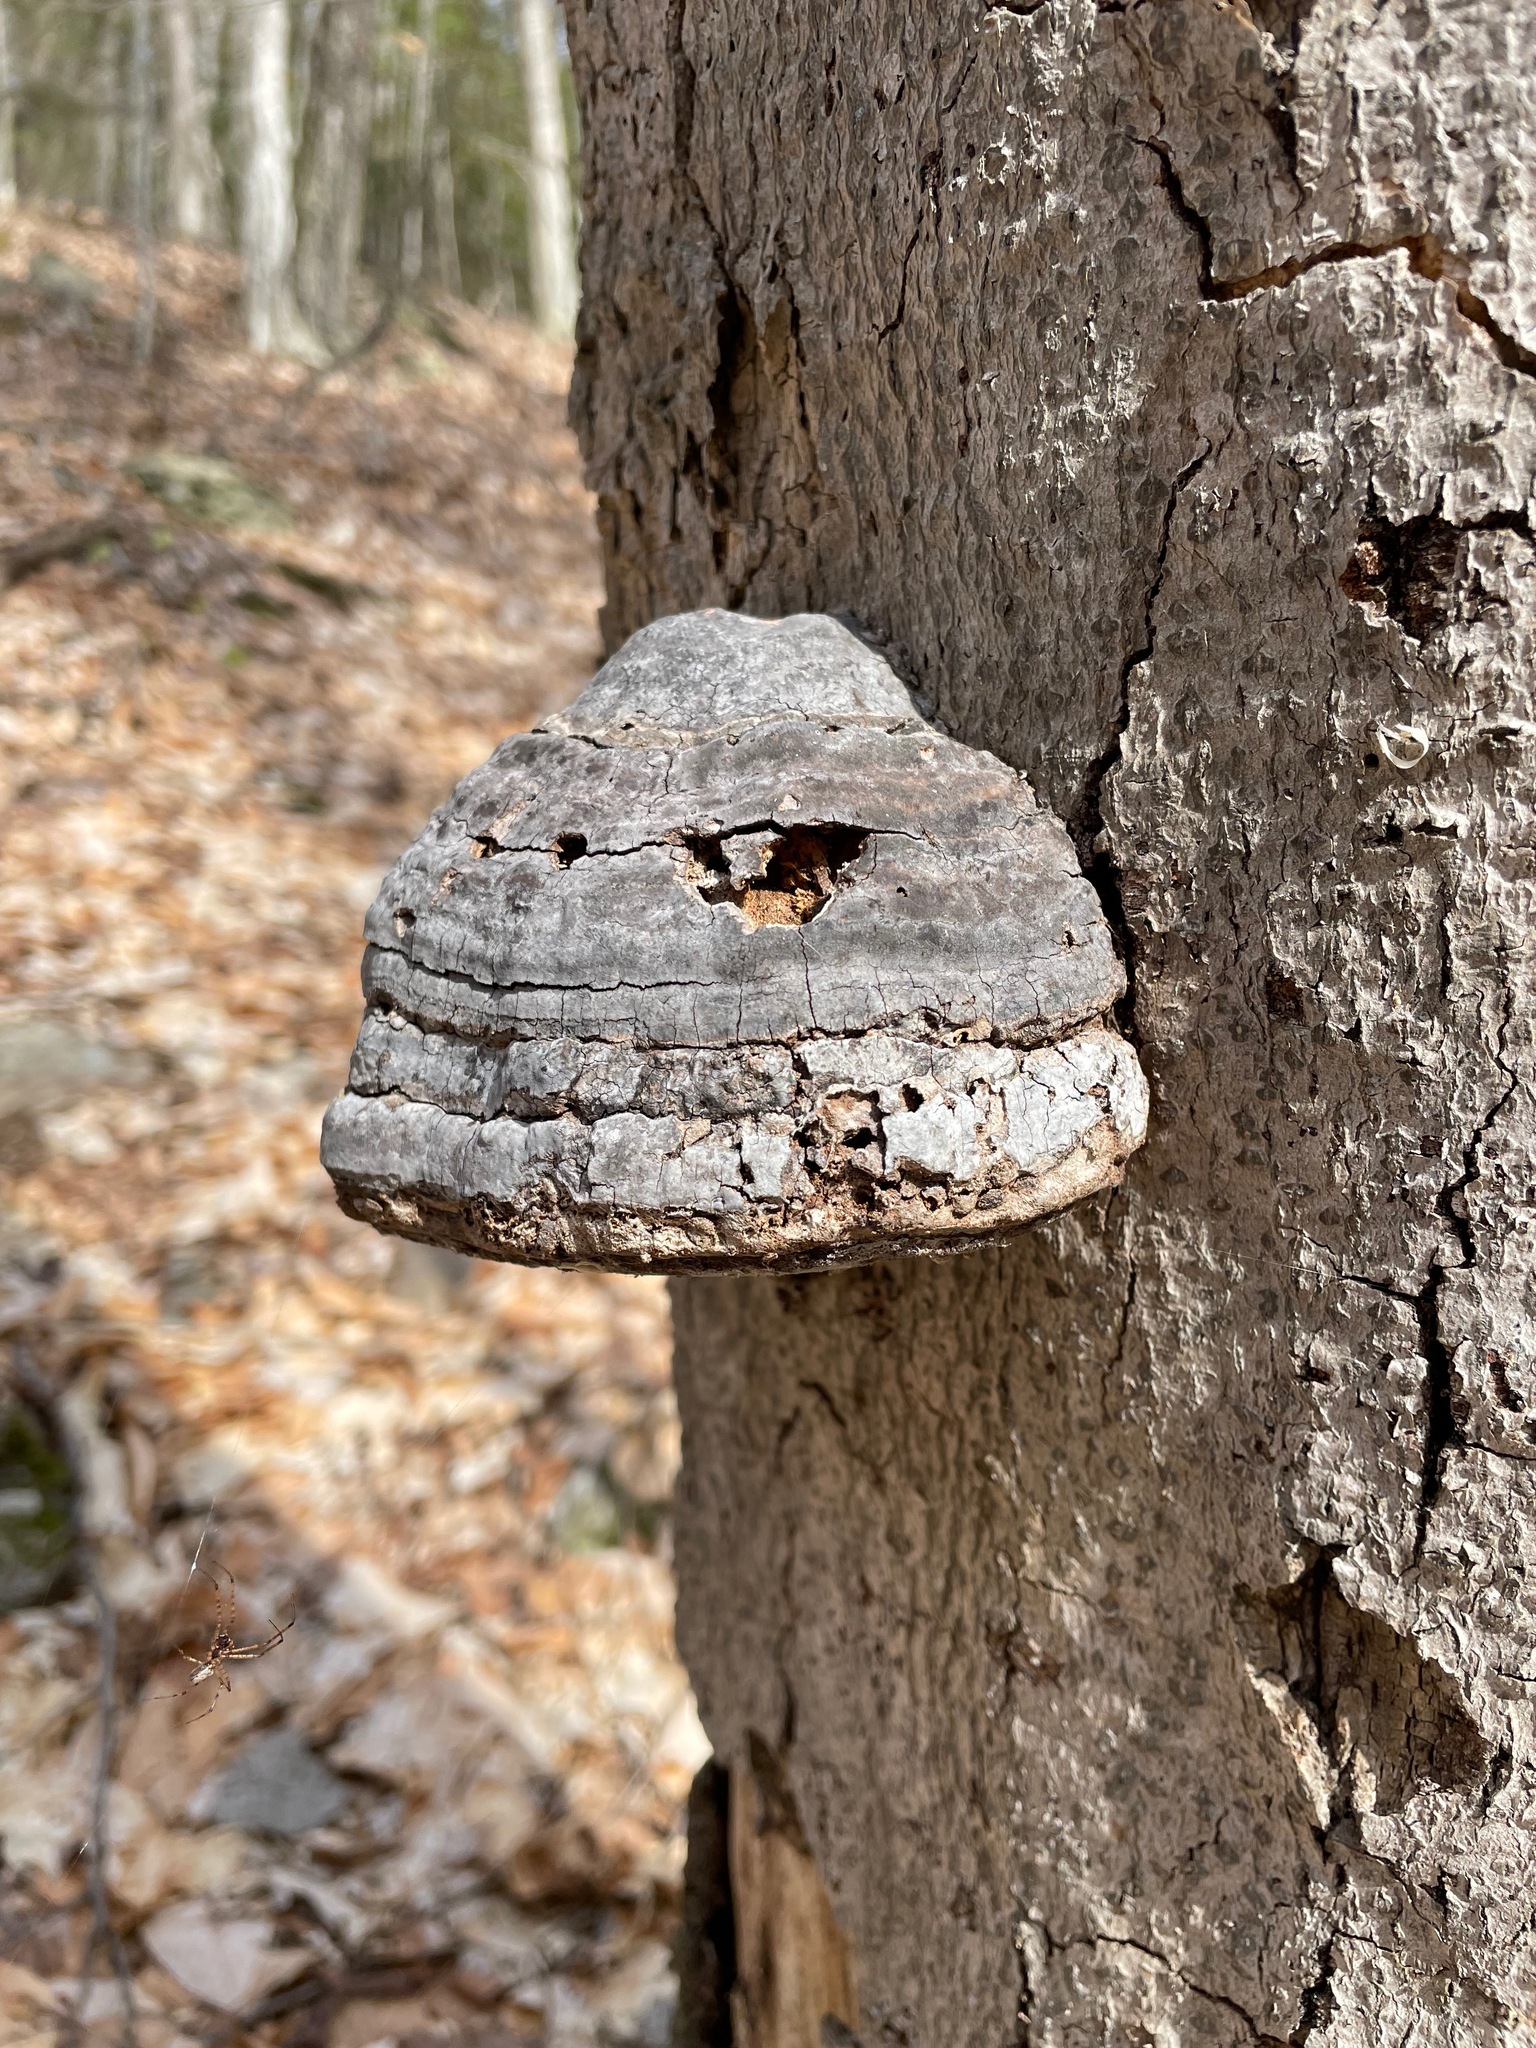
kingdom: Fungi
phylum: Basidiomycota
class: Agaricomycetes
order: Polyporales
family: Polyporaceae
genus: Fomes
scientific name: Fomes fomentarius
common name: Hoof fungus
